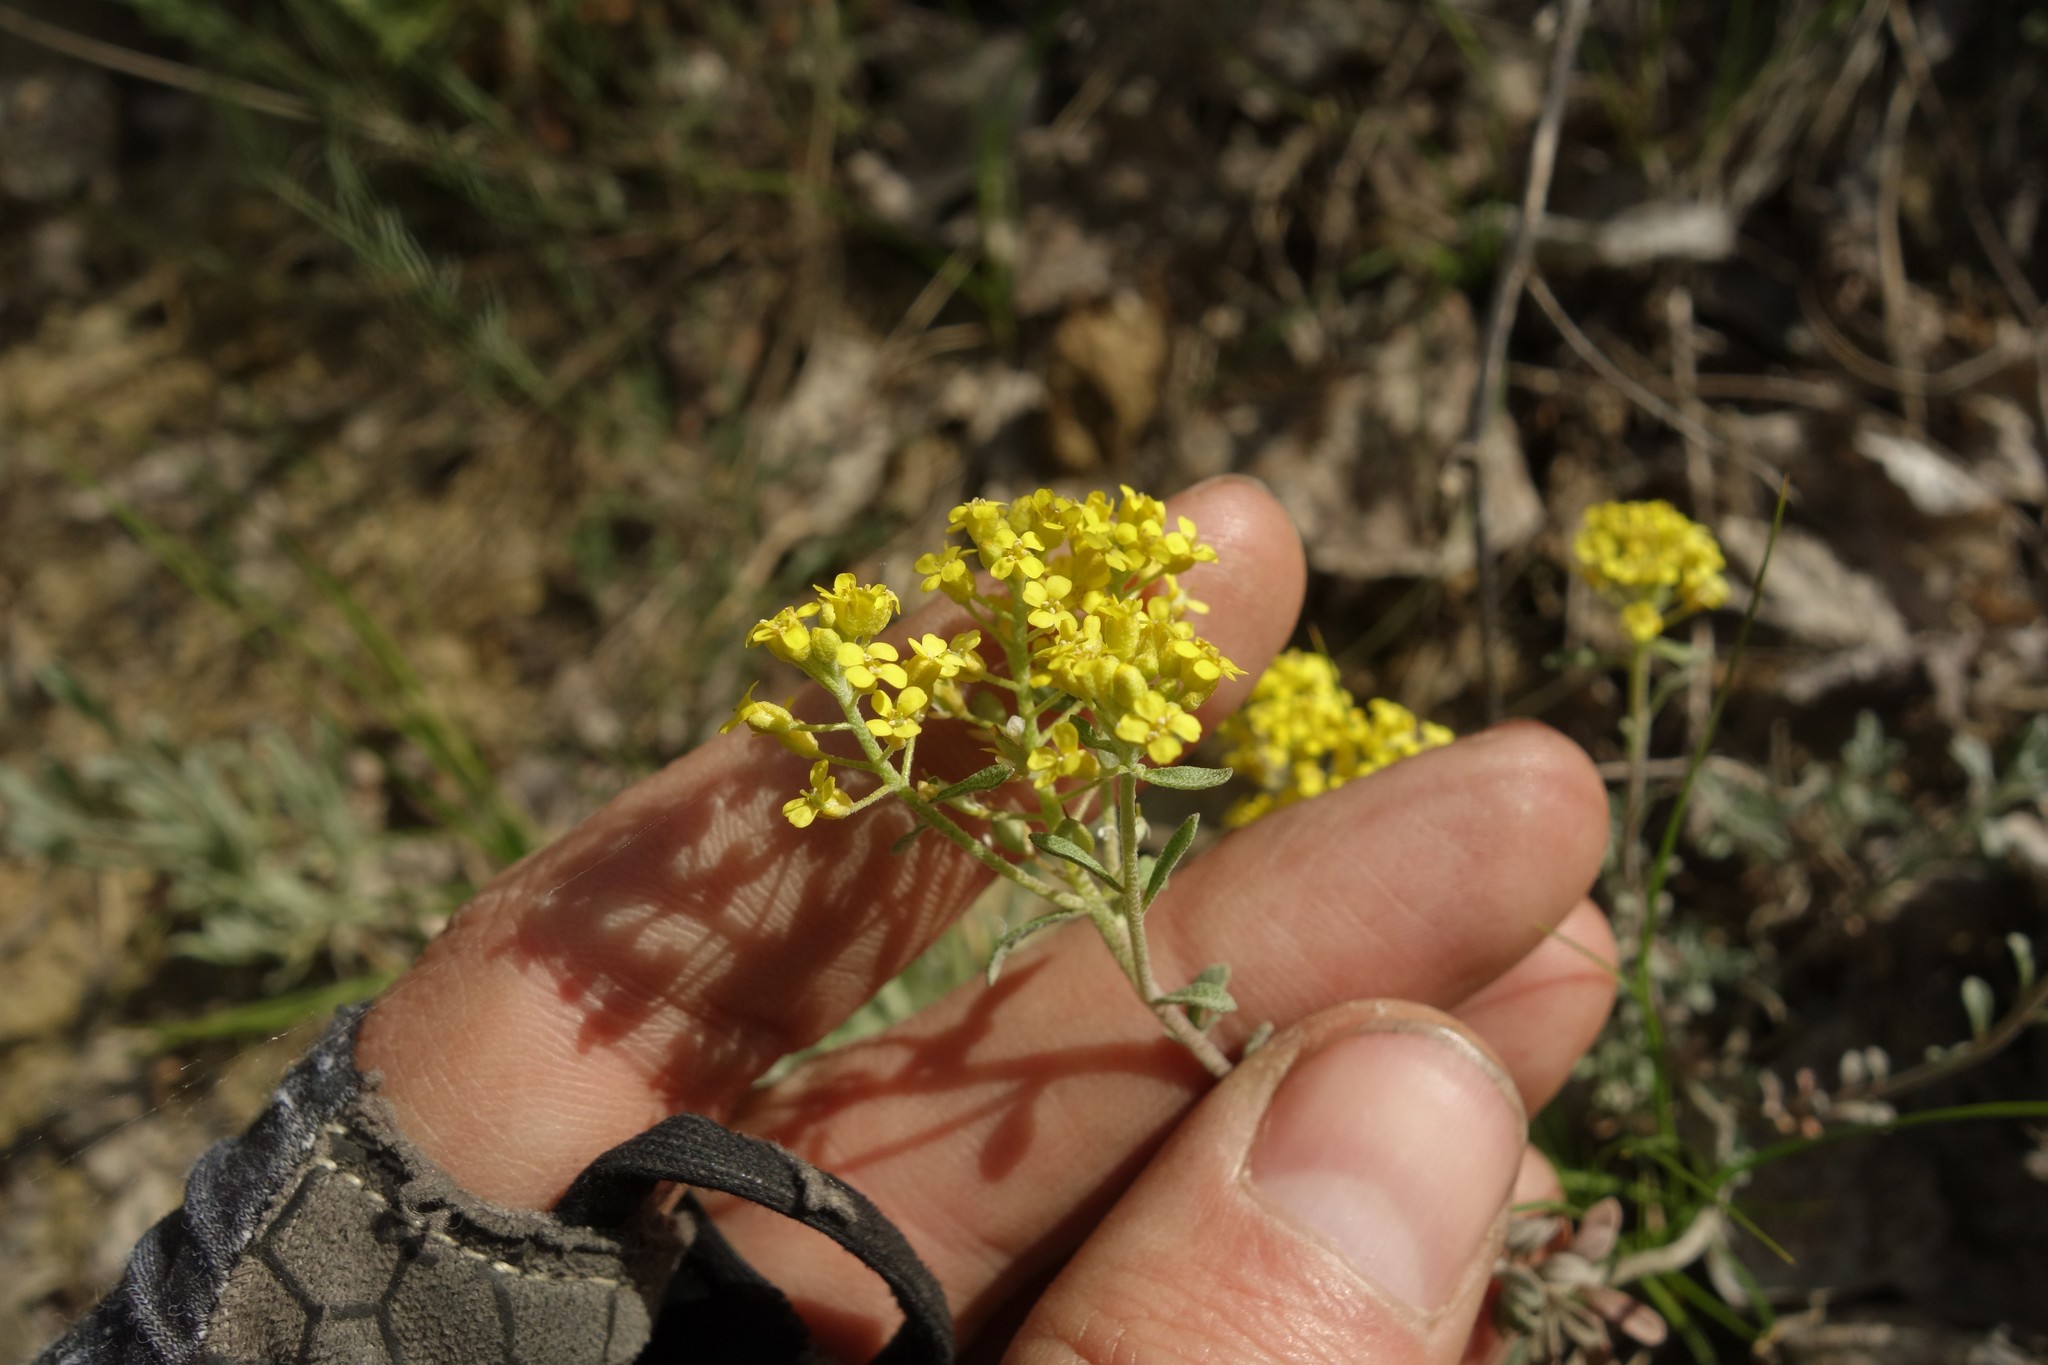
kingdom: Plantae
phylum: Tracheophyta
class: Magnoliopsida
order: Brassicales
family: Brassicaceae
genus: Odontarrhena
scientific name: Odontarrhena tortuosa
